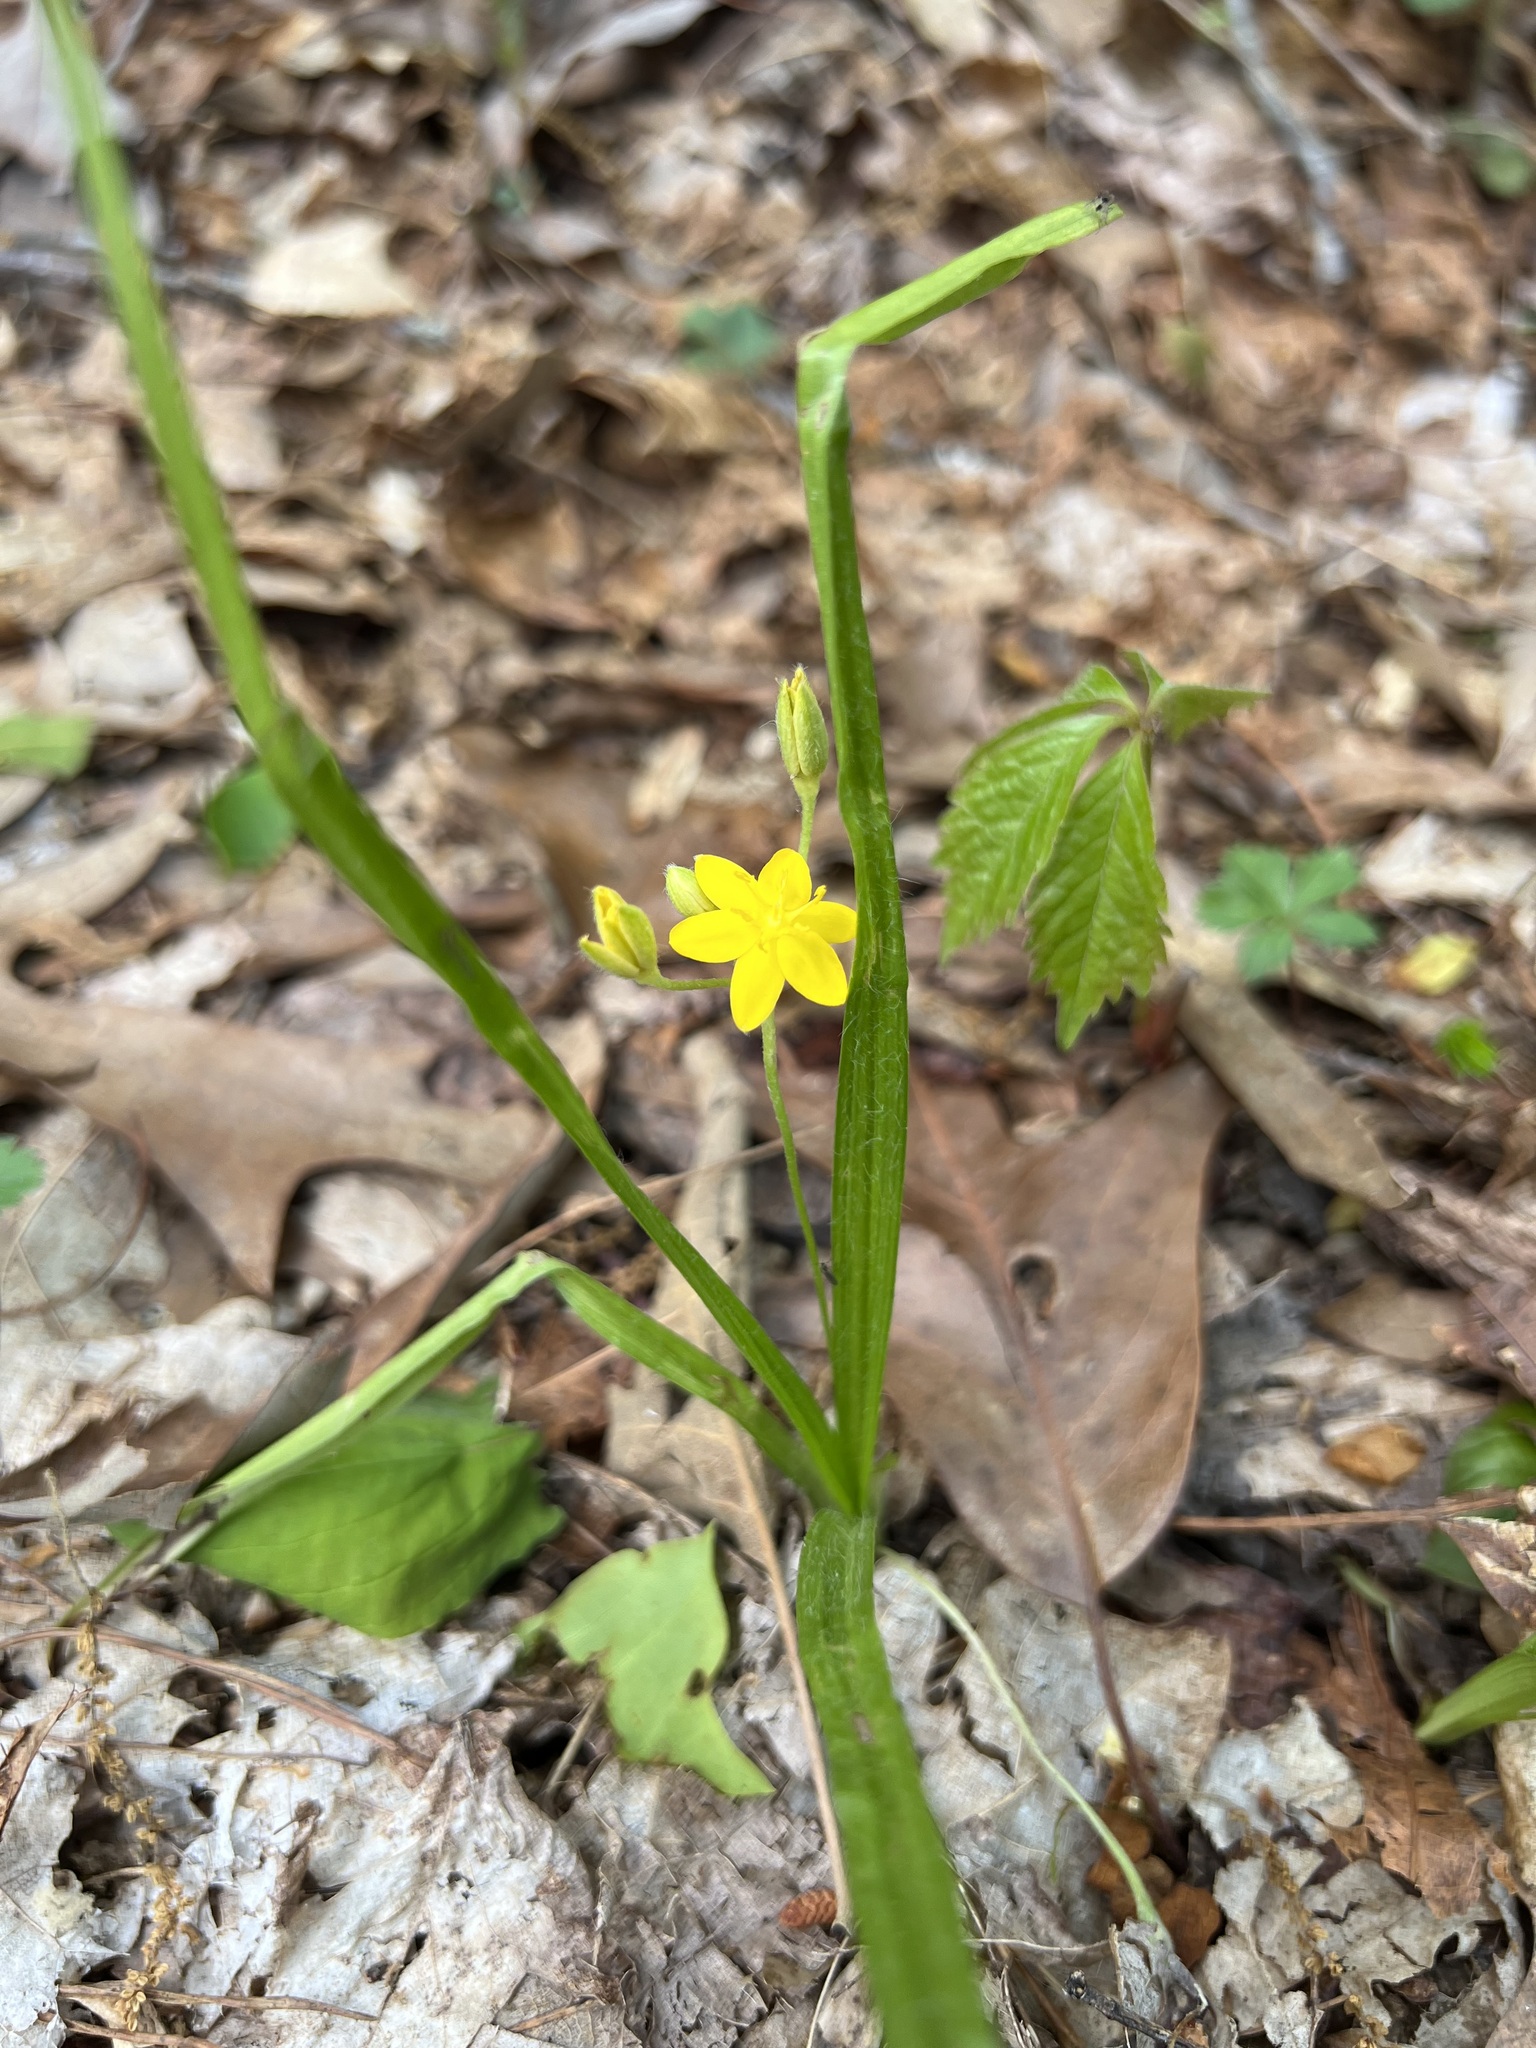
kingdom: Plantae
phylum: Tracheophyta
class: Liliopsida
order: Asparagales
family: Hypoxidaceae
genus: Hypoxis
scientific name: Hypoxis hirsuta
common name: Common goldstar
